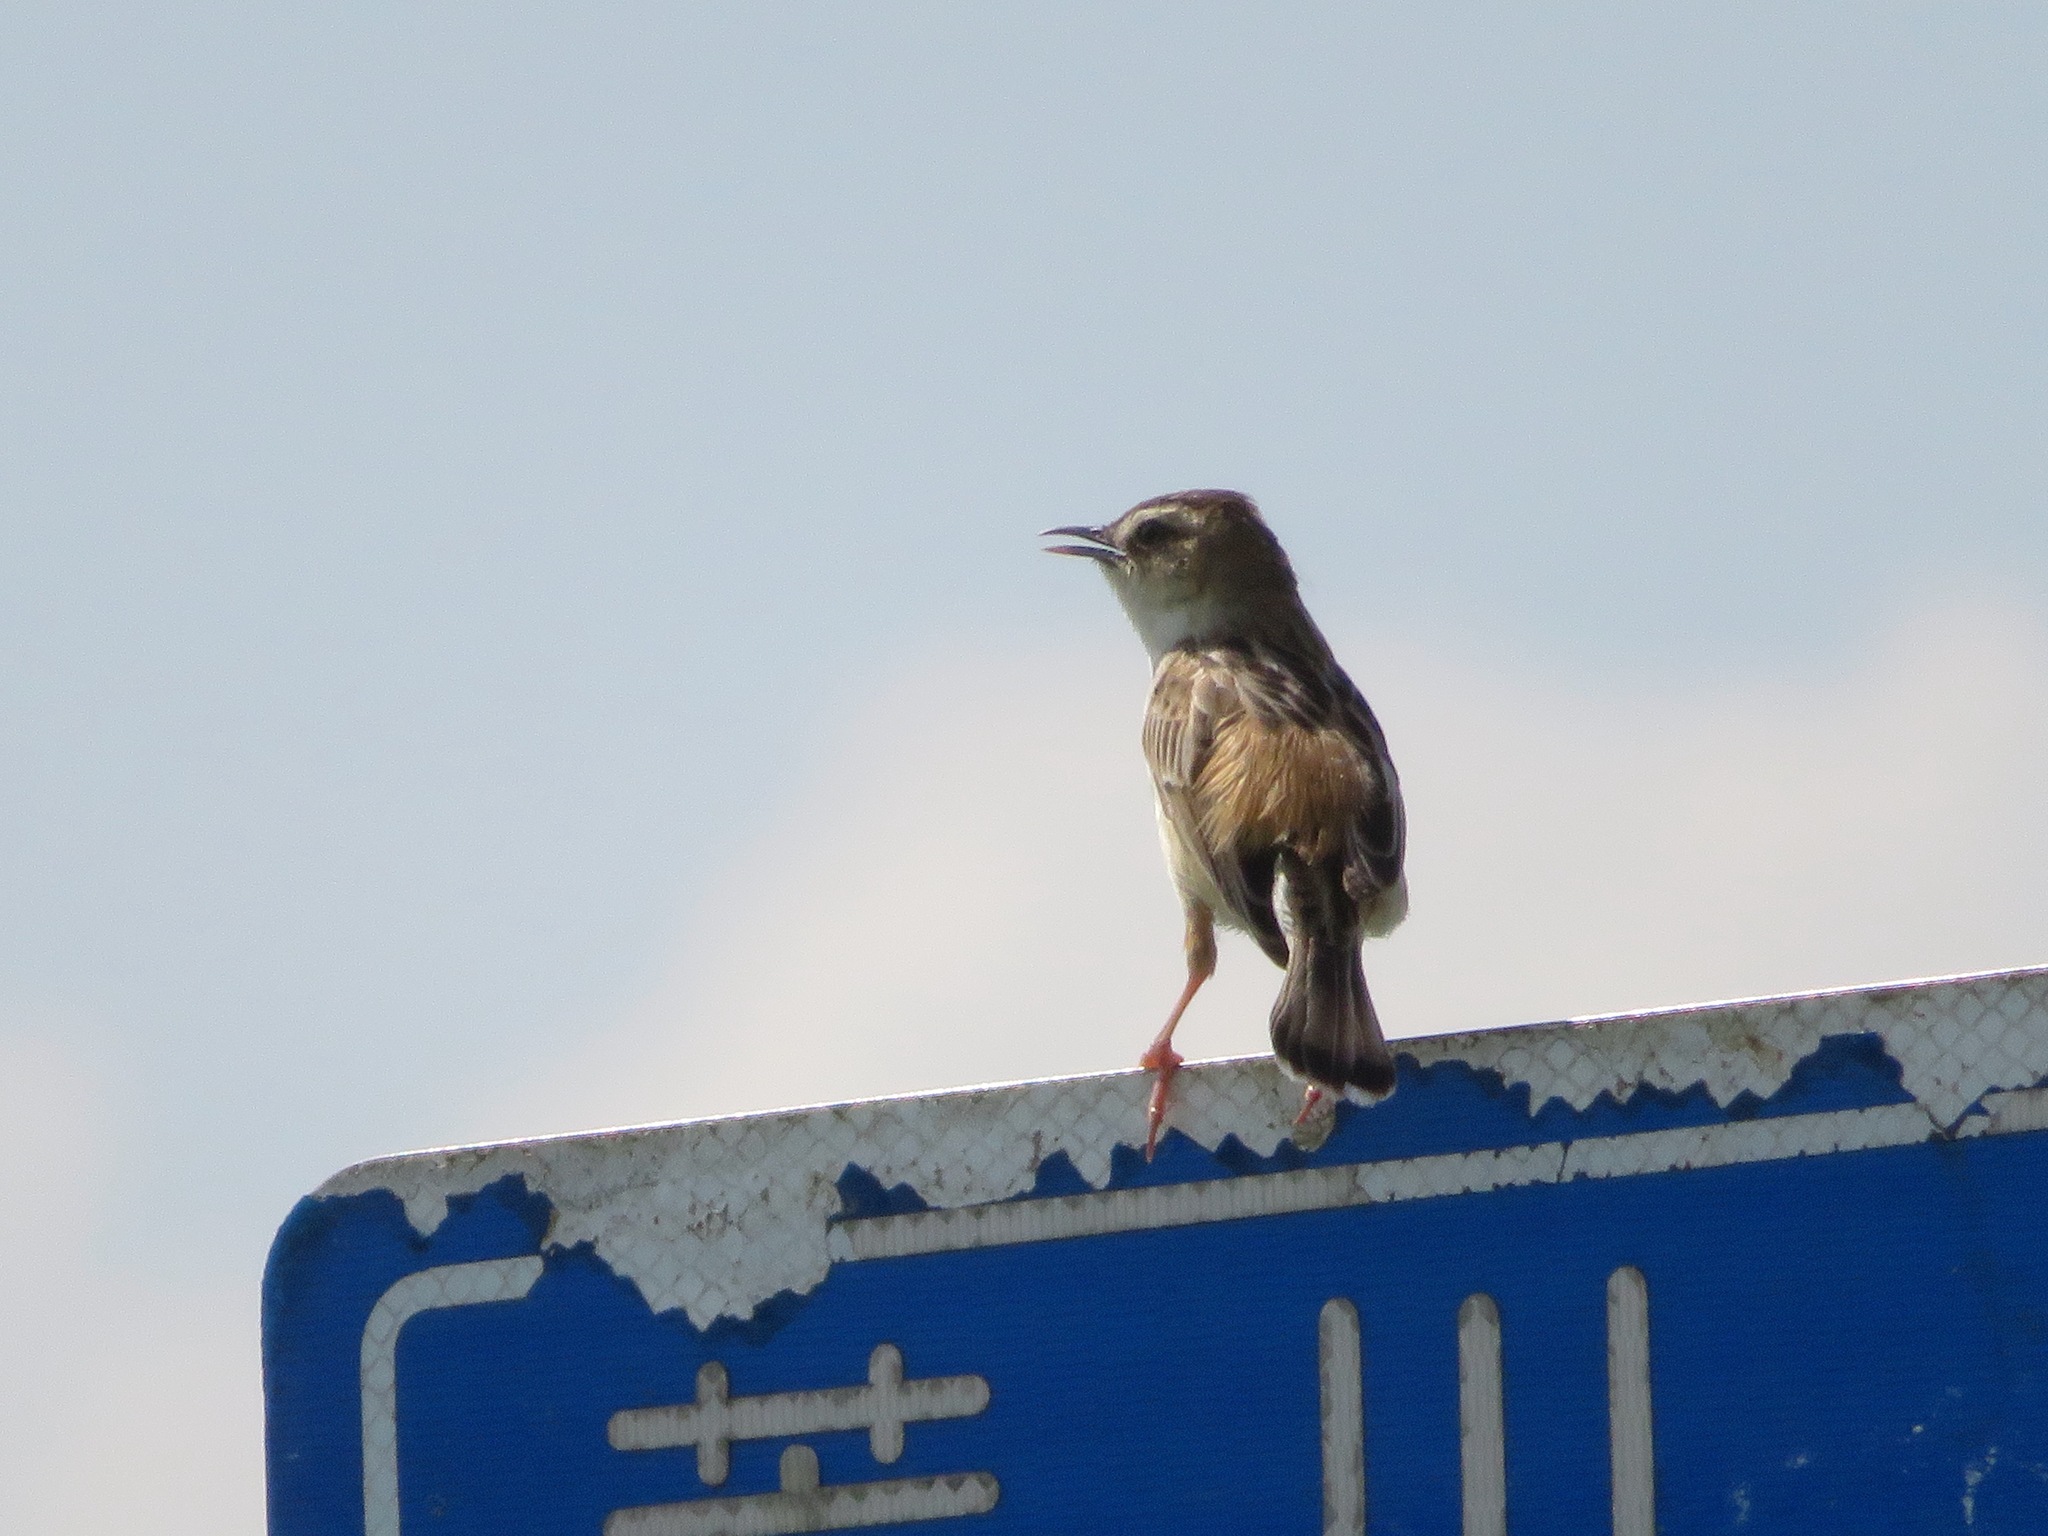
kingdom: Animalia
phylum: Chordata
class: Aves
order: Passeriformes
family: Cisticolidae
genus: Cisticola
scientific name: Cisticola juncidis
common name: Zitting cisticola
